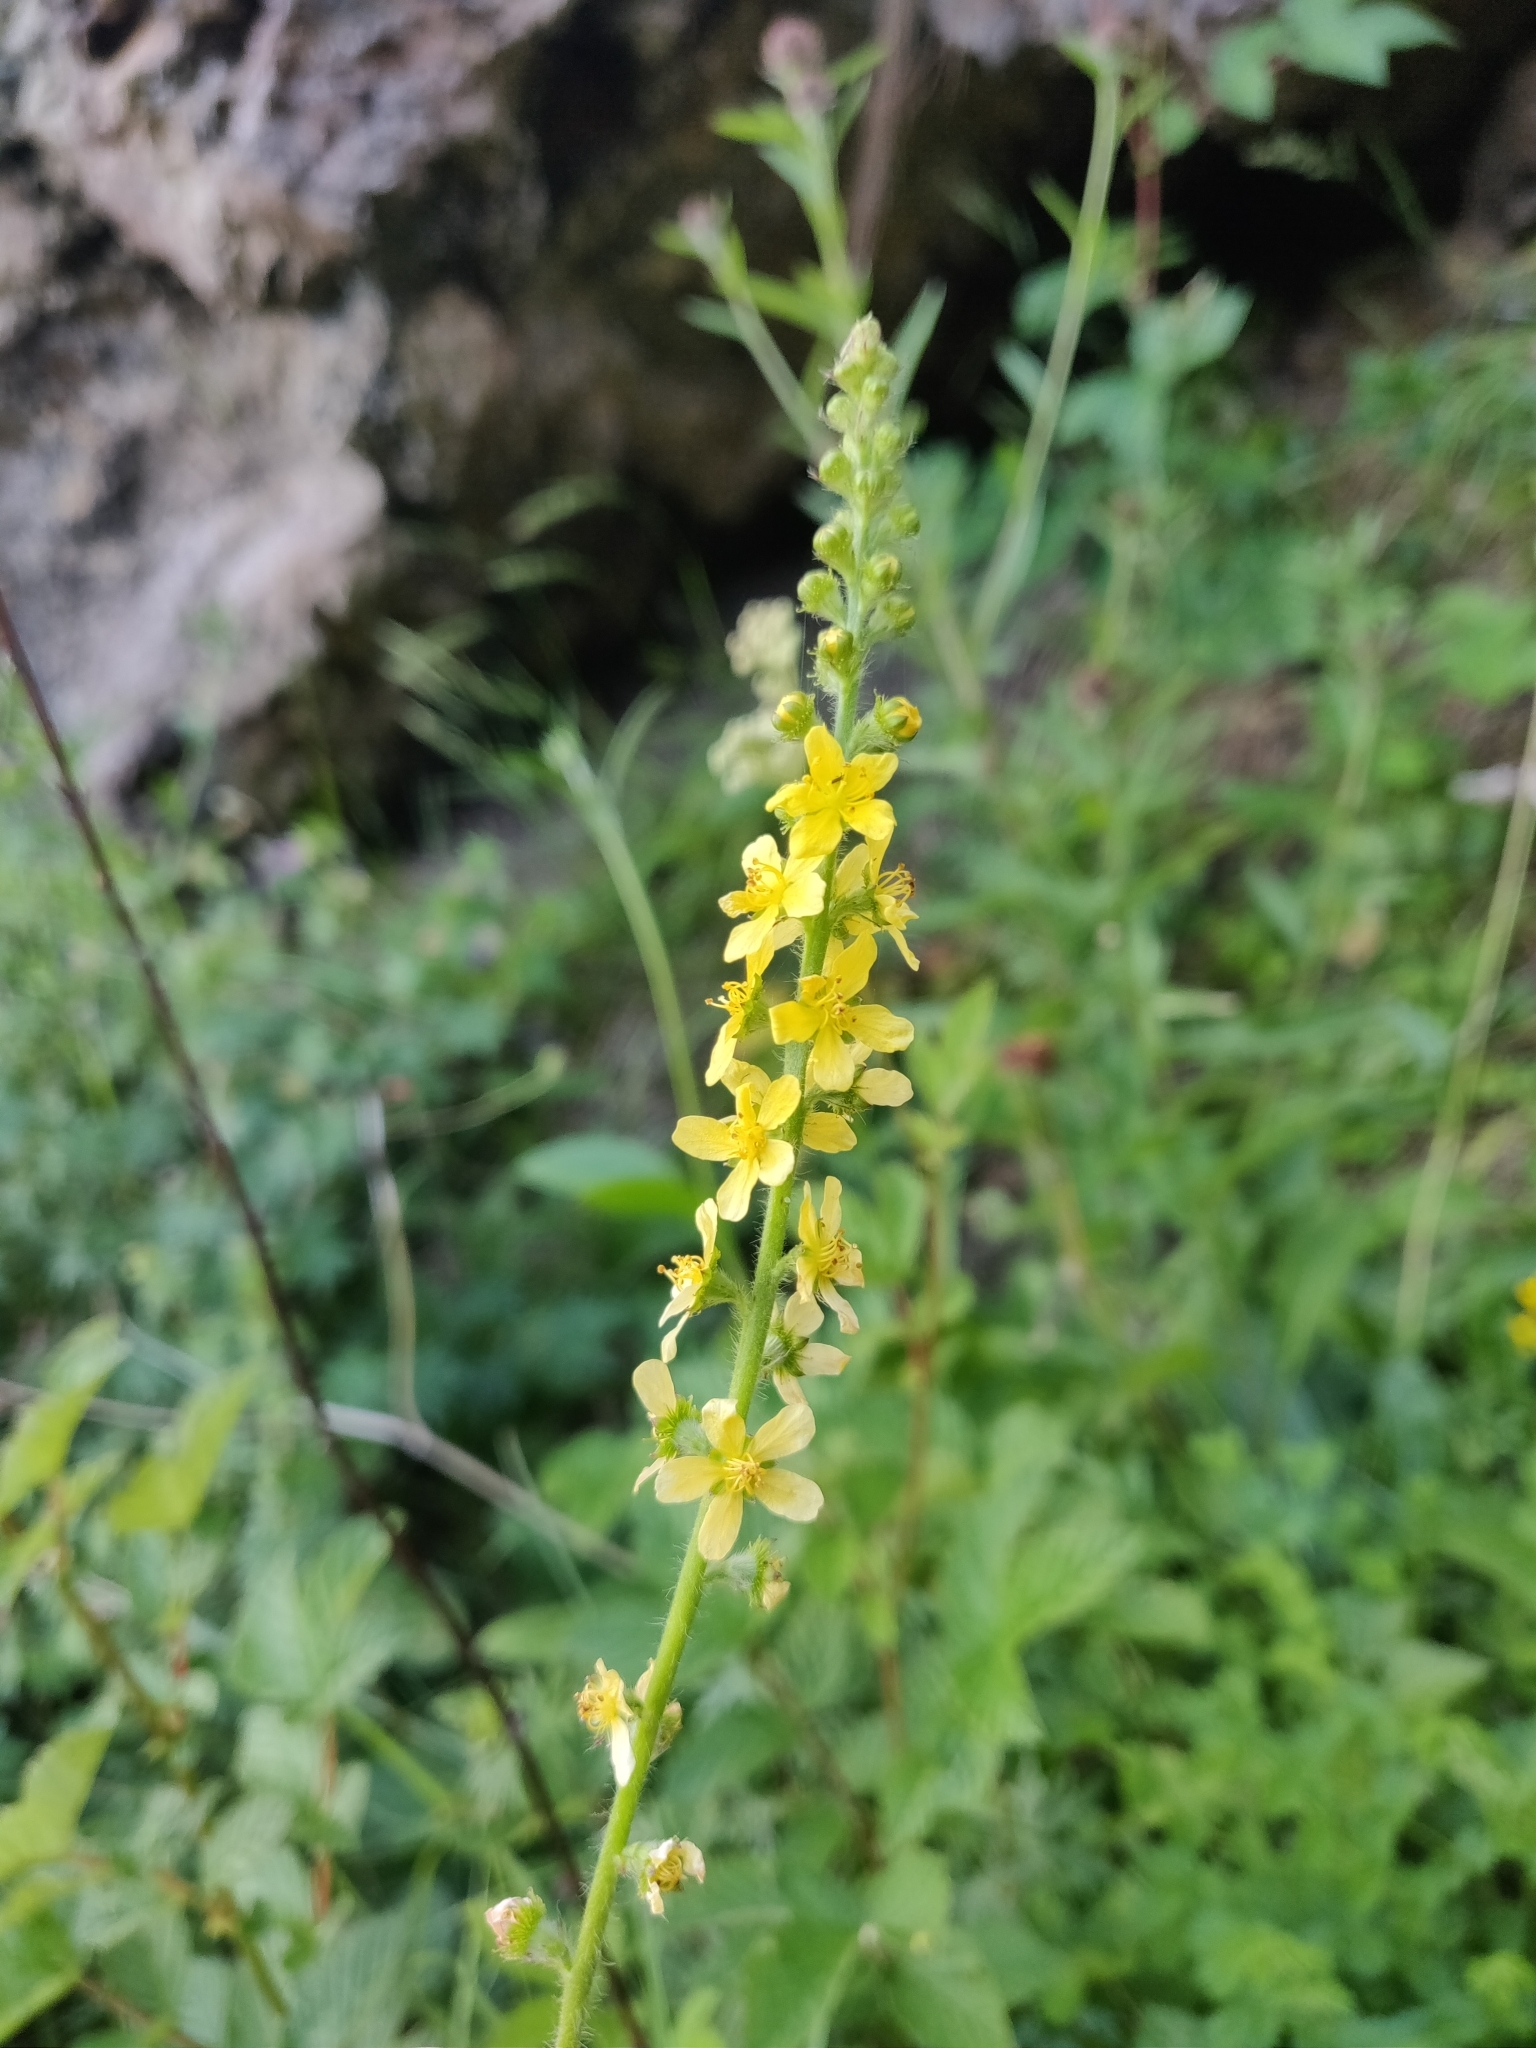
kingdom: Plantae
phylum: Tracheophyta
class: Magnoliopsida
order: Rosales
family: Rosaceae
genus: Agrimonia
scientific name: Agrimonia eupatoria
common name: Agrimony
